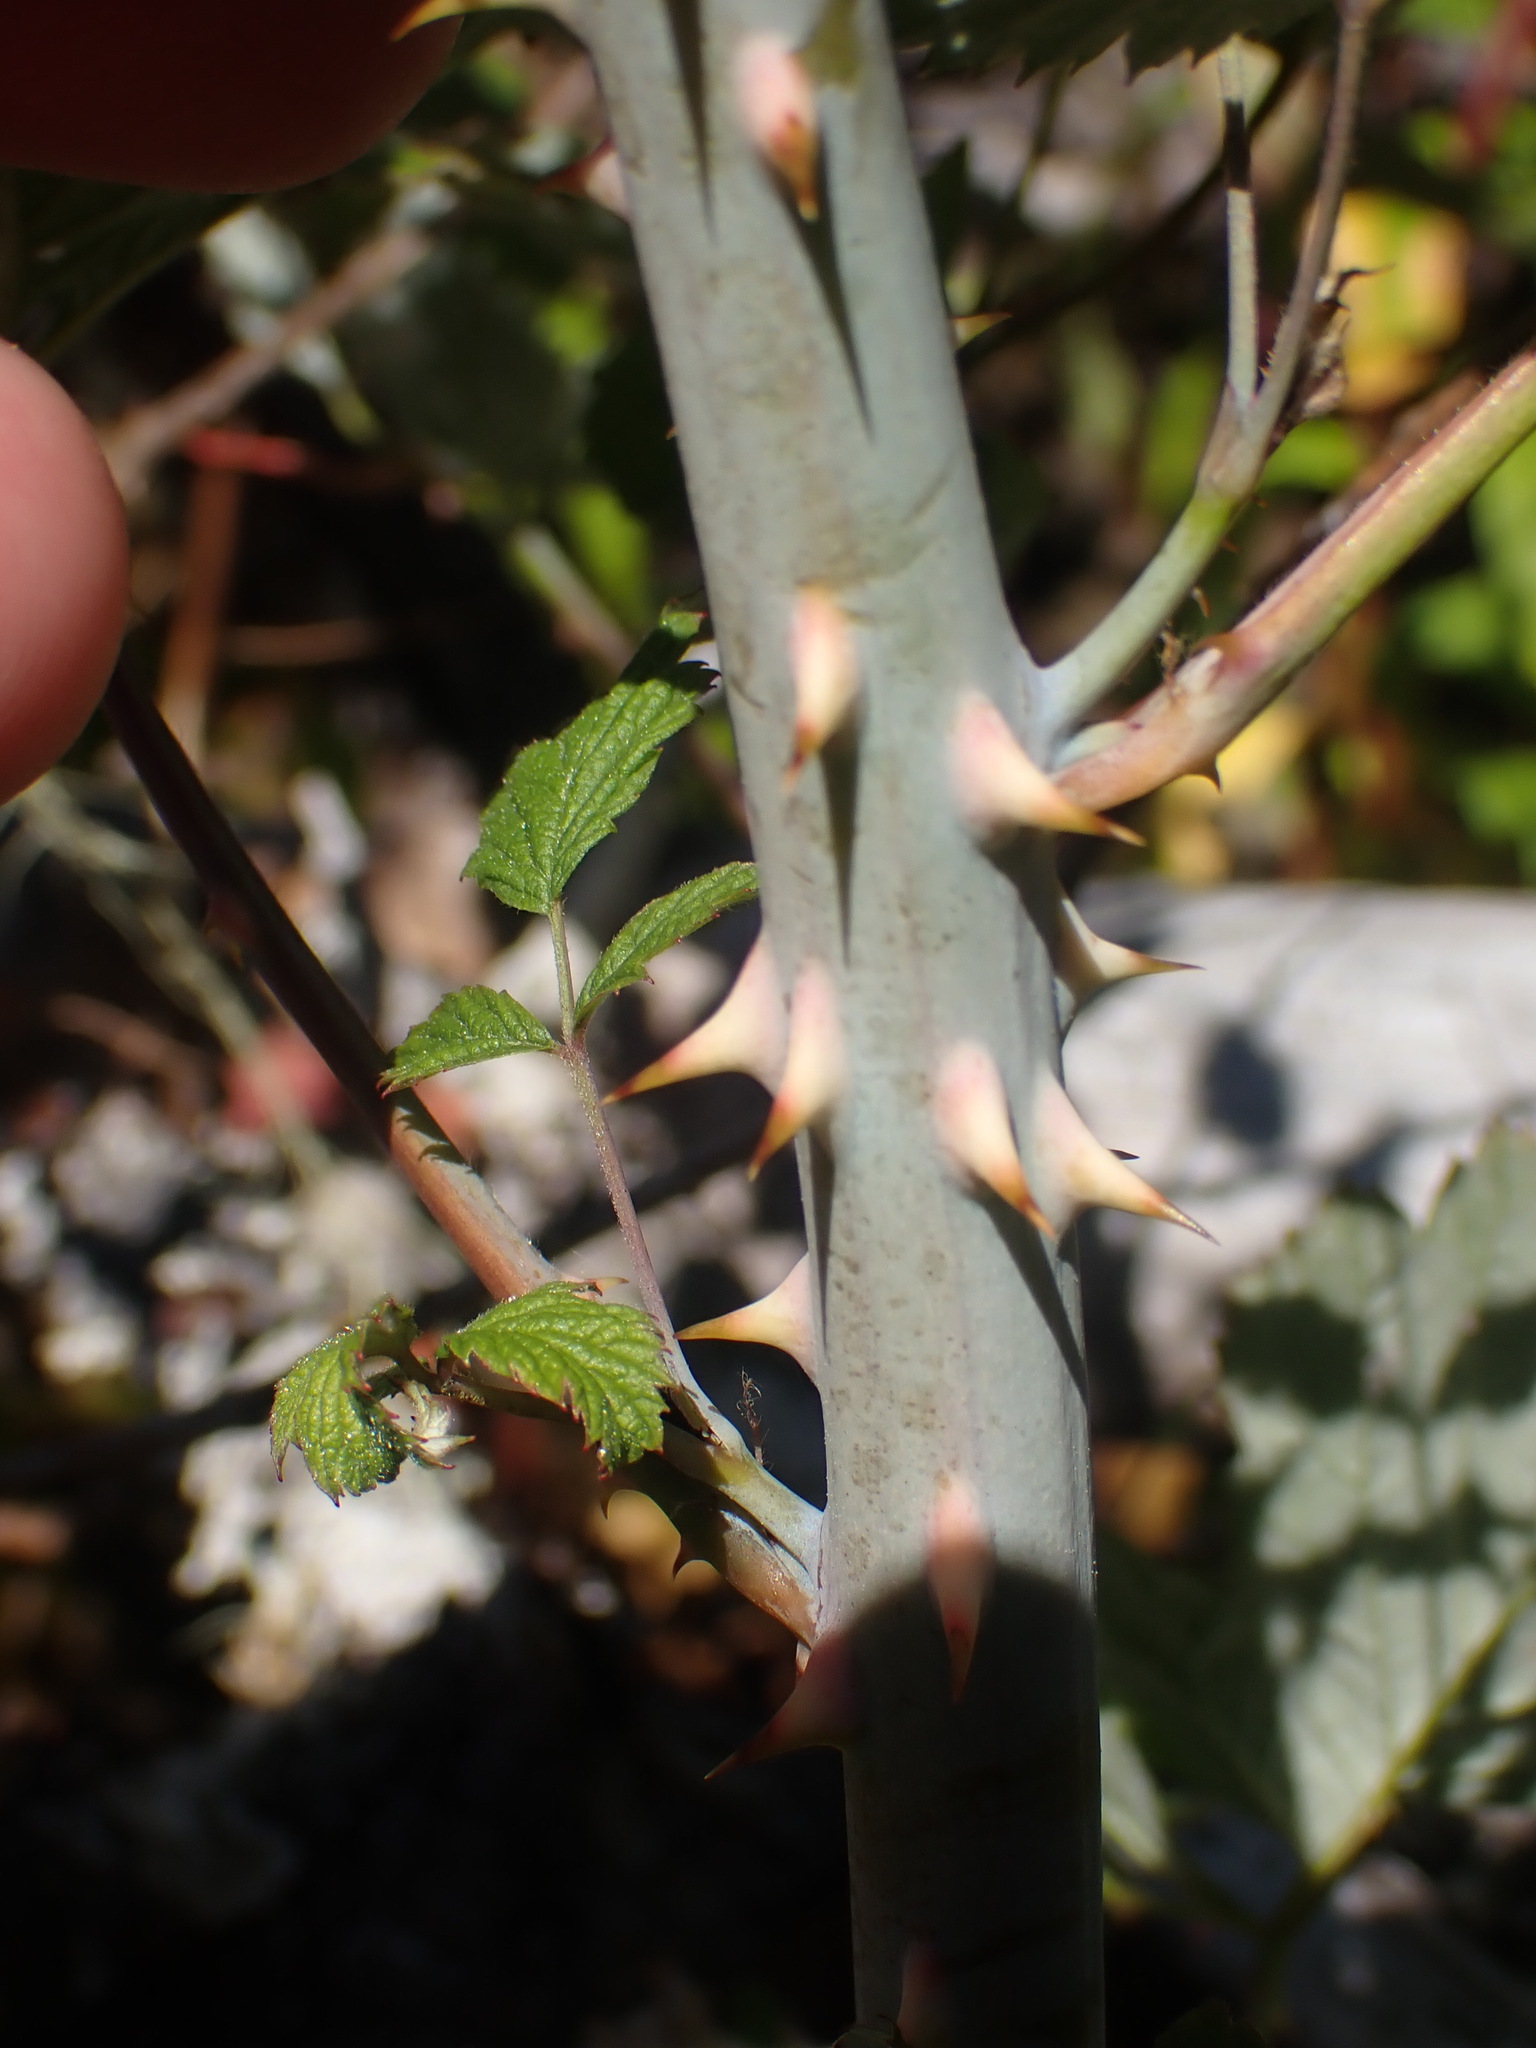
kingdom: Plantae
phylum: Tracheophyta
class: Magnoliopsida
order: Rosales
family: Rosaceae
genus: Rubus
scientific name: Rubus leucodermis
